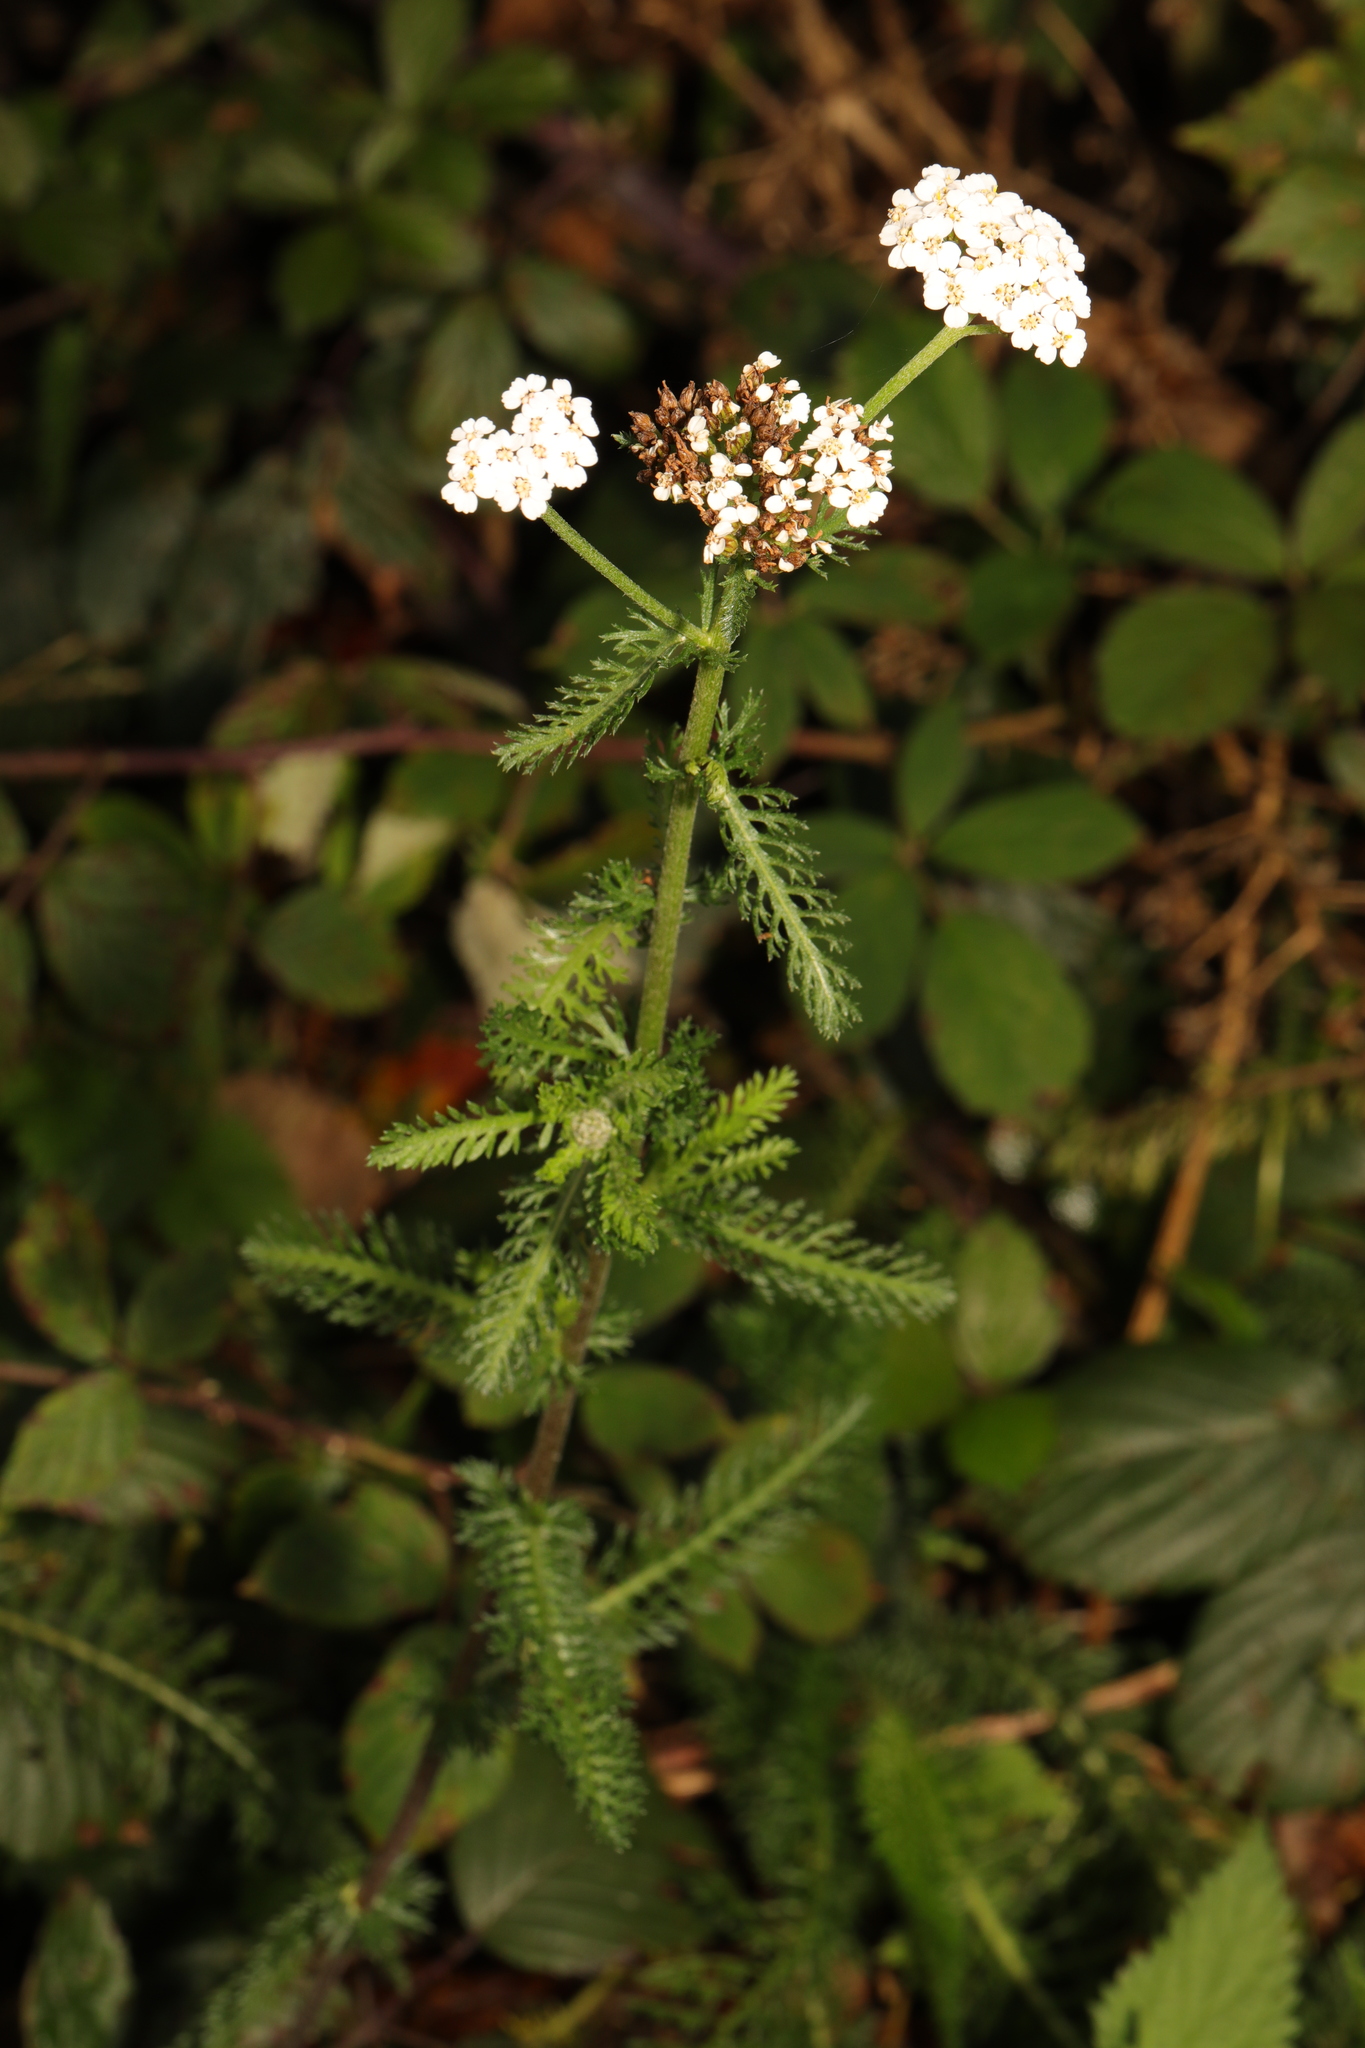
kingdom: Plantae
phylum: Tracheophyta
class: Magnoliopsida
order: Asterales
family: Asteraceae
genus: Achillea
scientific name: Achillea millefolium
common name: Yarrow
